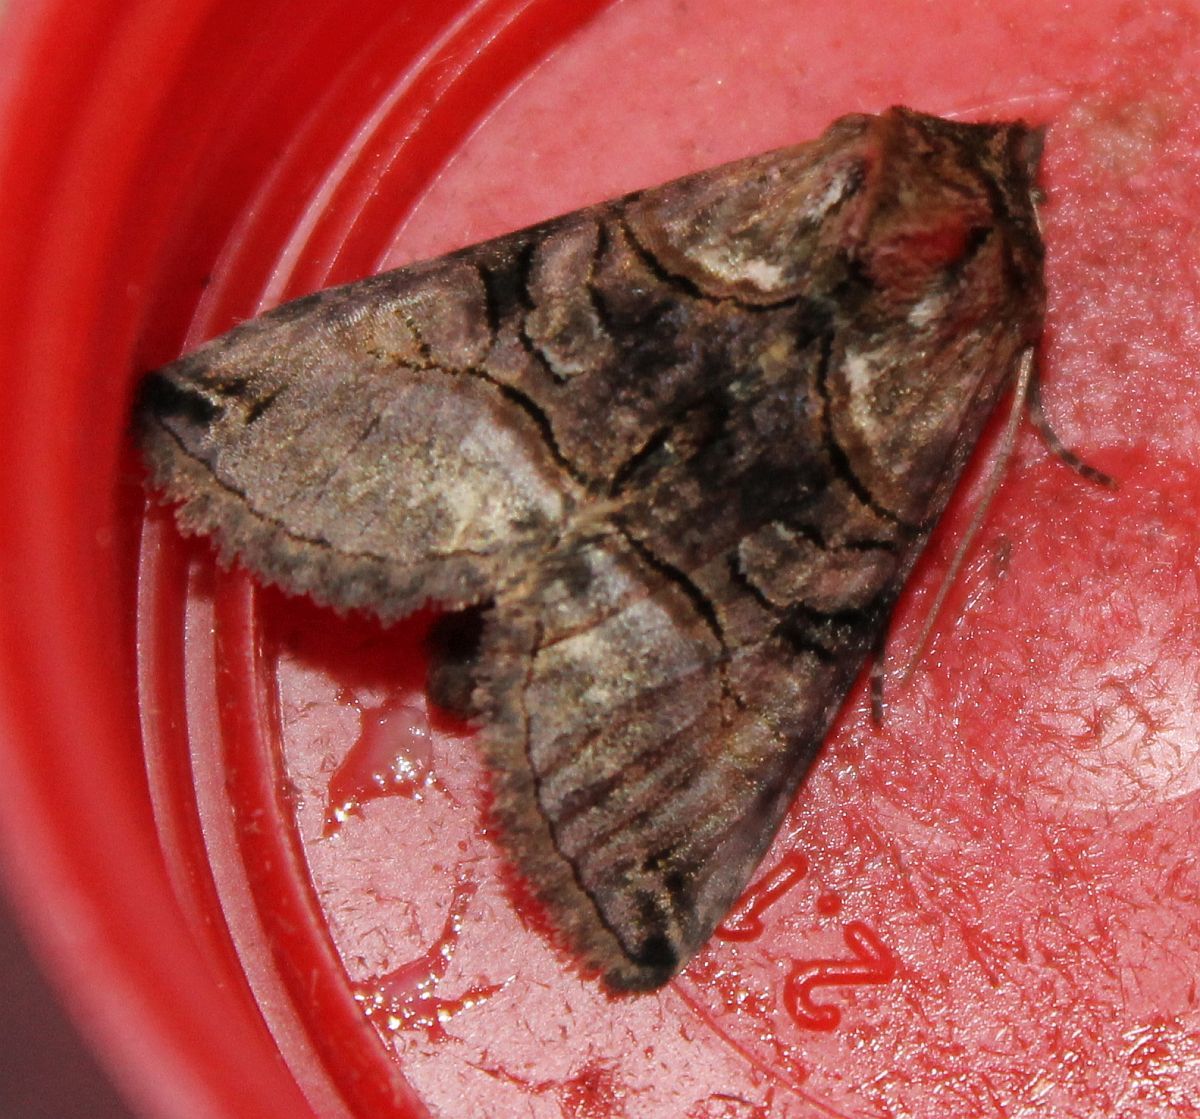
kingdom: Animalia
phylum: Arthropoda
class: Insecta
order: Lepidoptera
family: Noctuidae
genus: Abrostola
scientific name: Abrostola tripartita
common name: Spectacle
